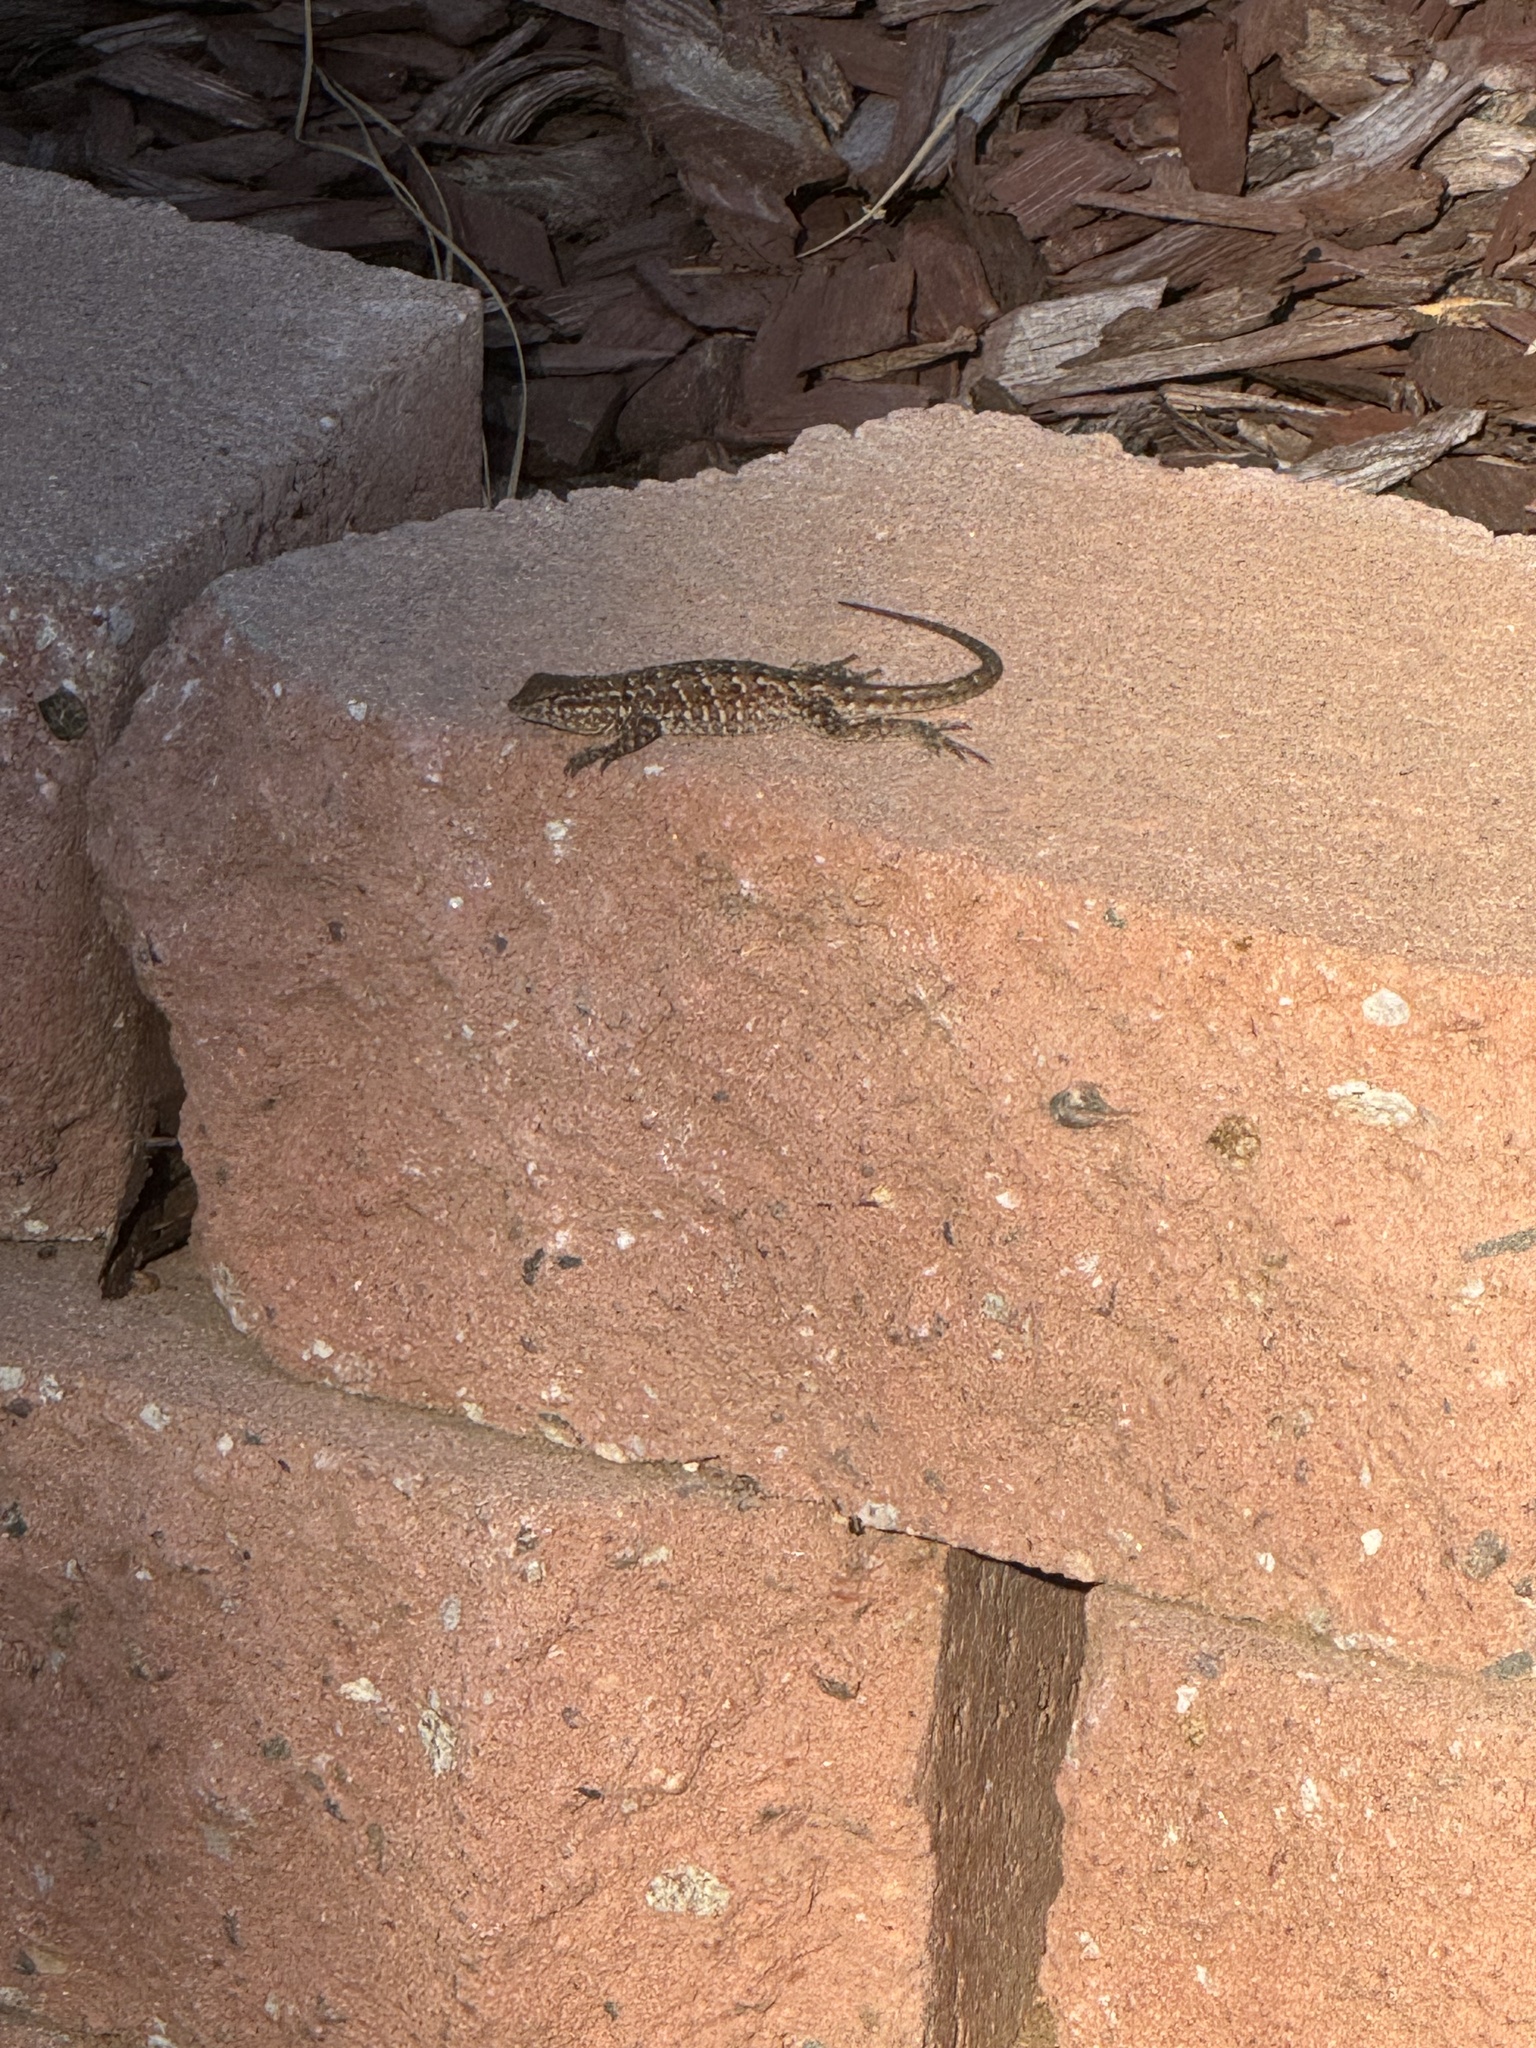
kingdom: Animalia
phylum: Chordata
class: Squamata
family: Phrynosomatidae
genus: Uta
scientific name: Uta stansburiana
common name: Side-blotched lizard
